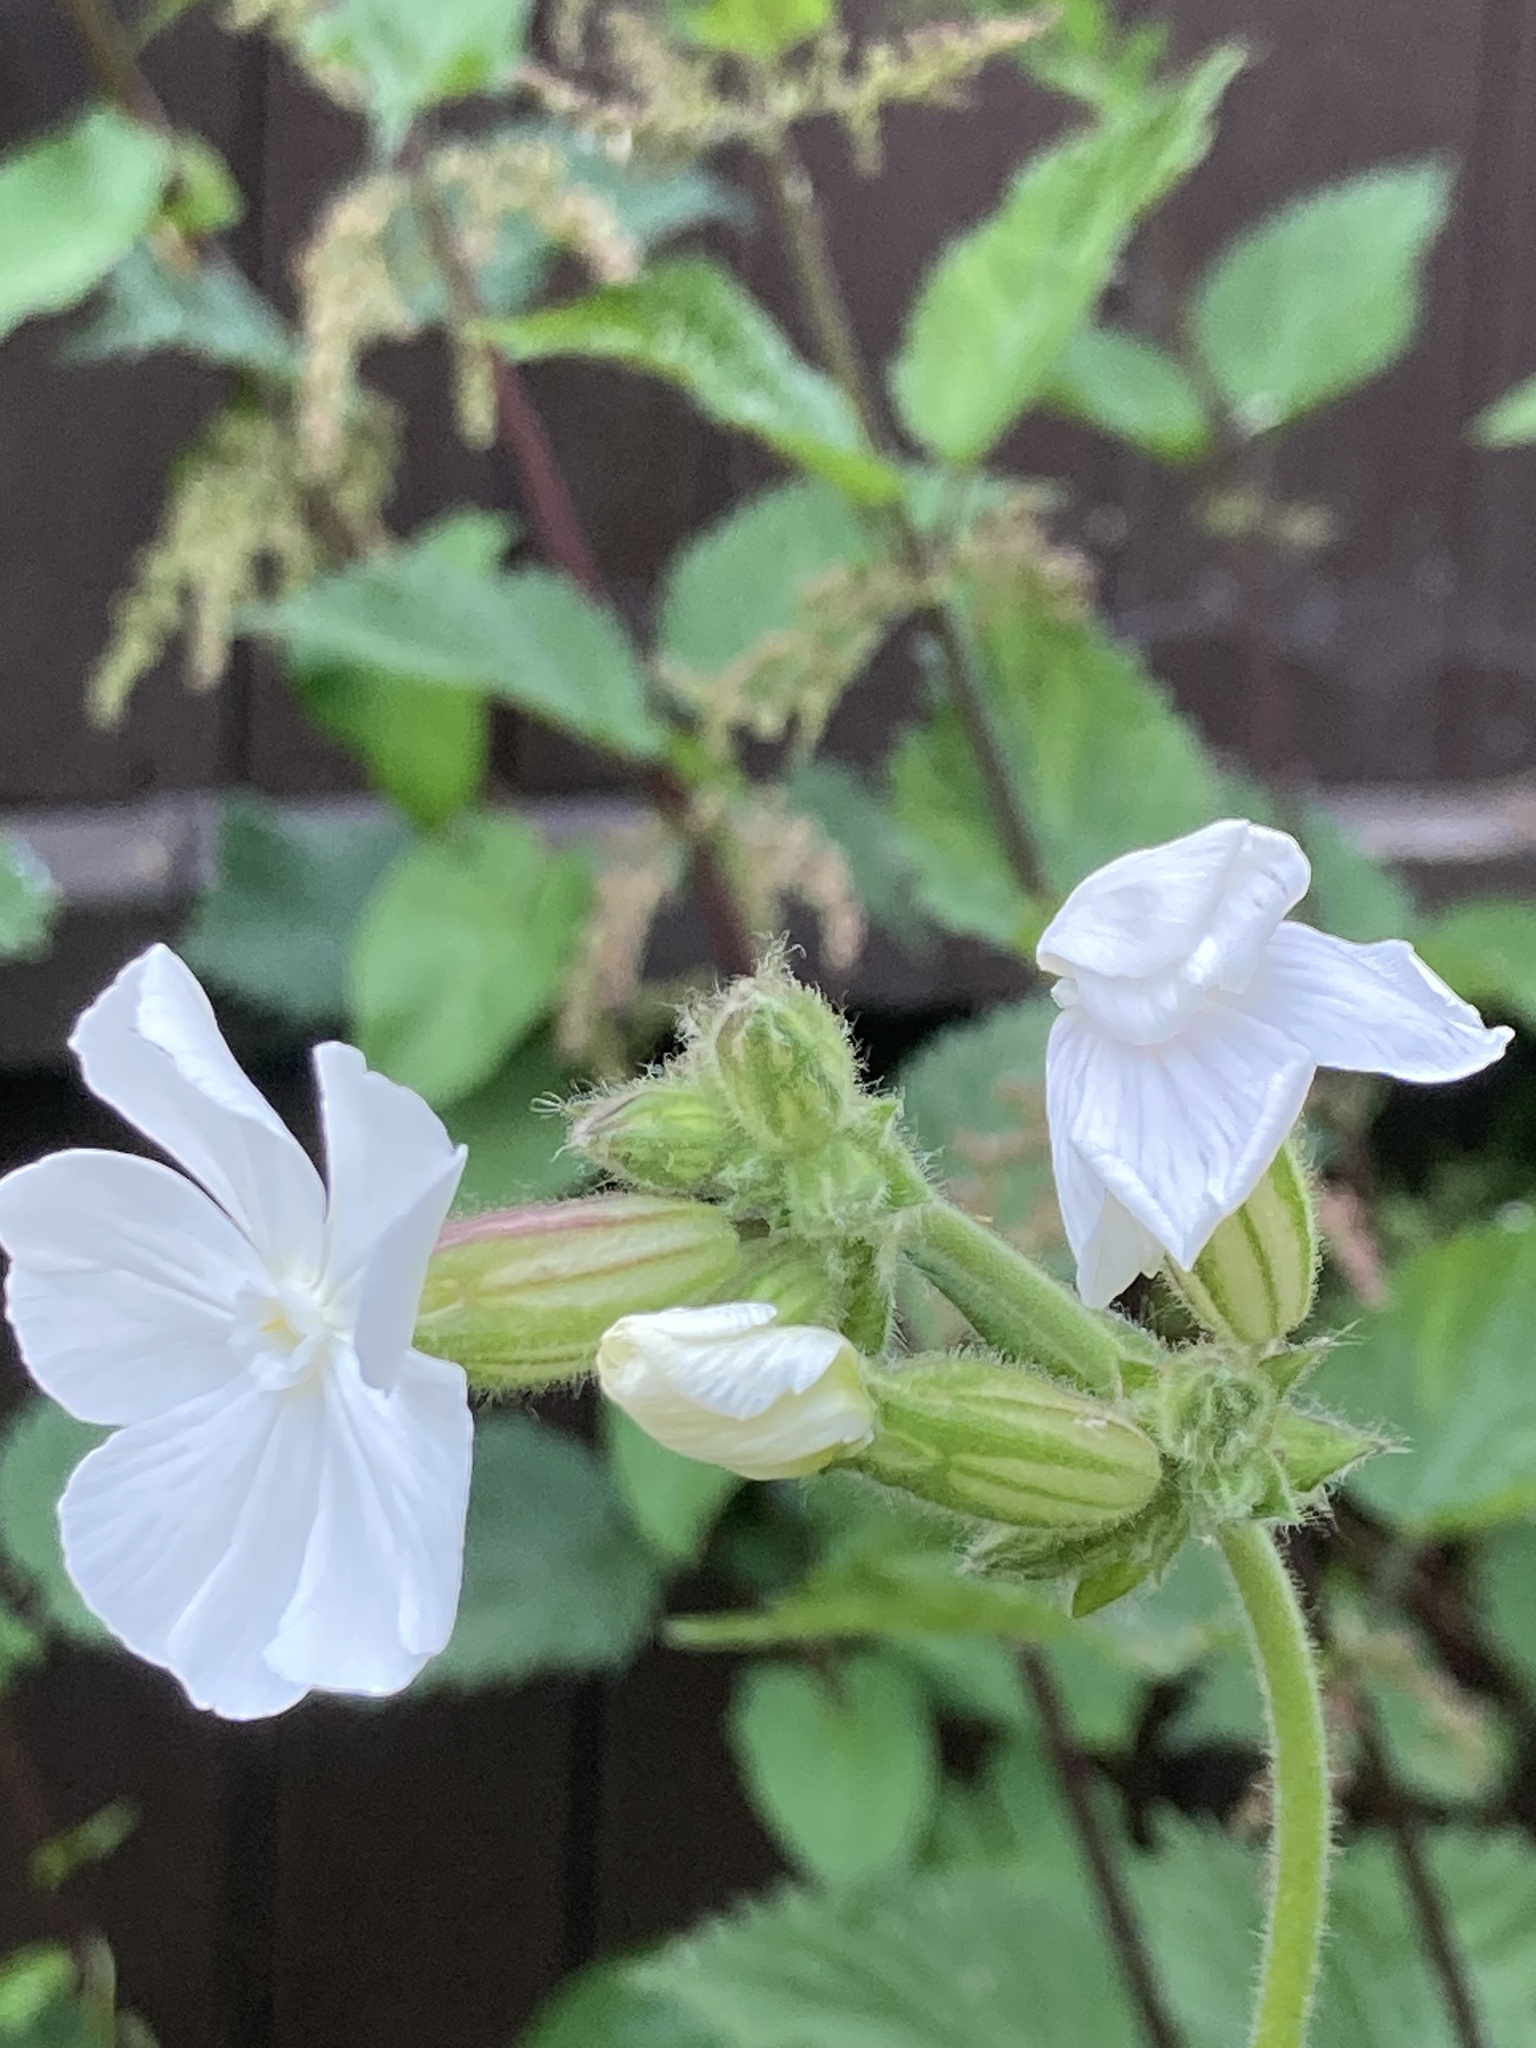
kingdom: Plantae
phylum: Tracheophyta
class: Magnoliopsida
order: Caryophyllales
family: Caryophyllaceae
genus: Silene
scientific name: Silene latifolia
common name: White campion
